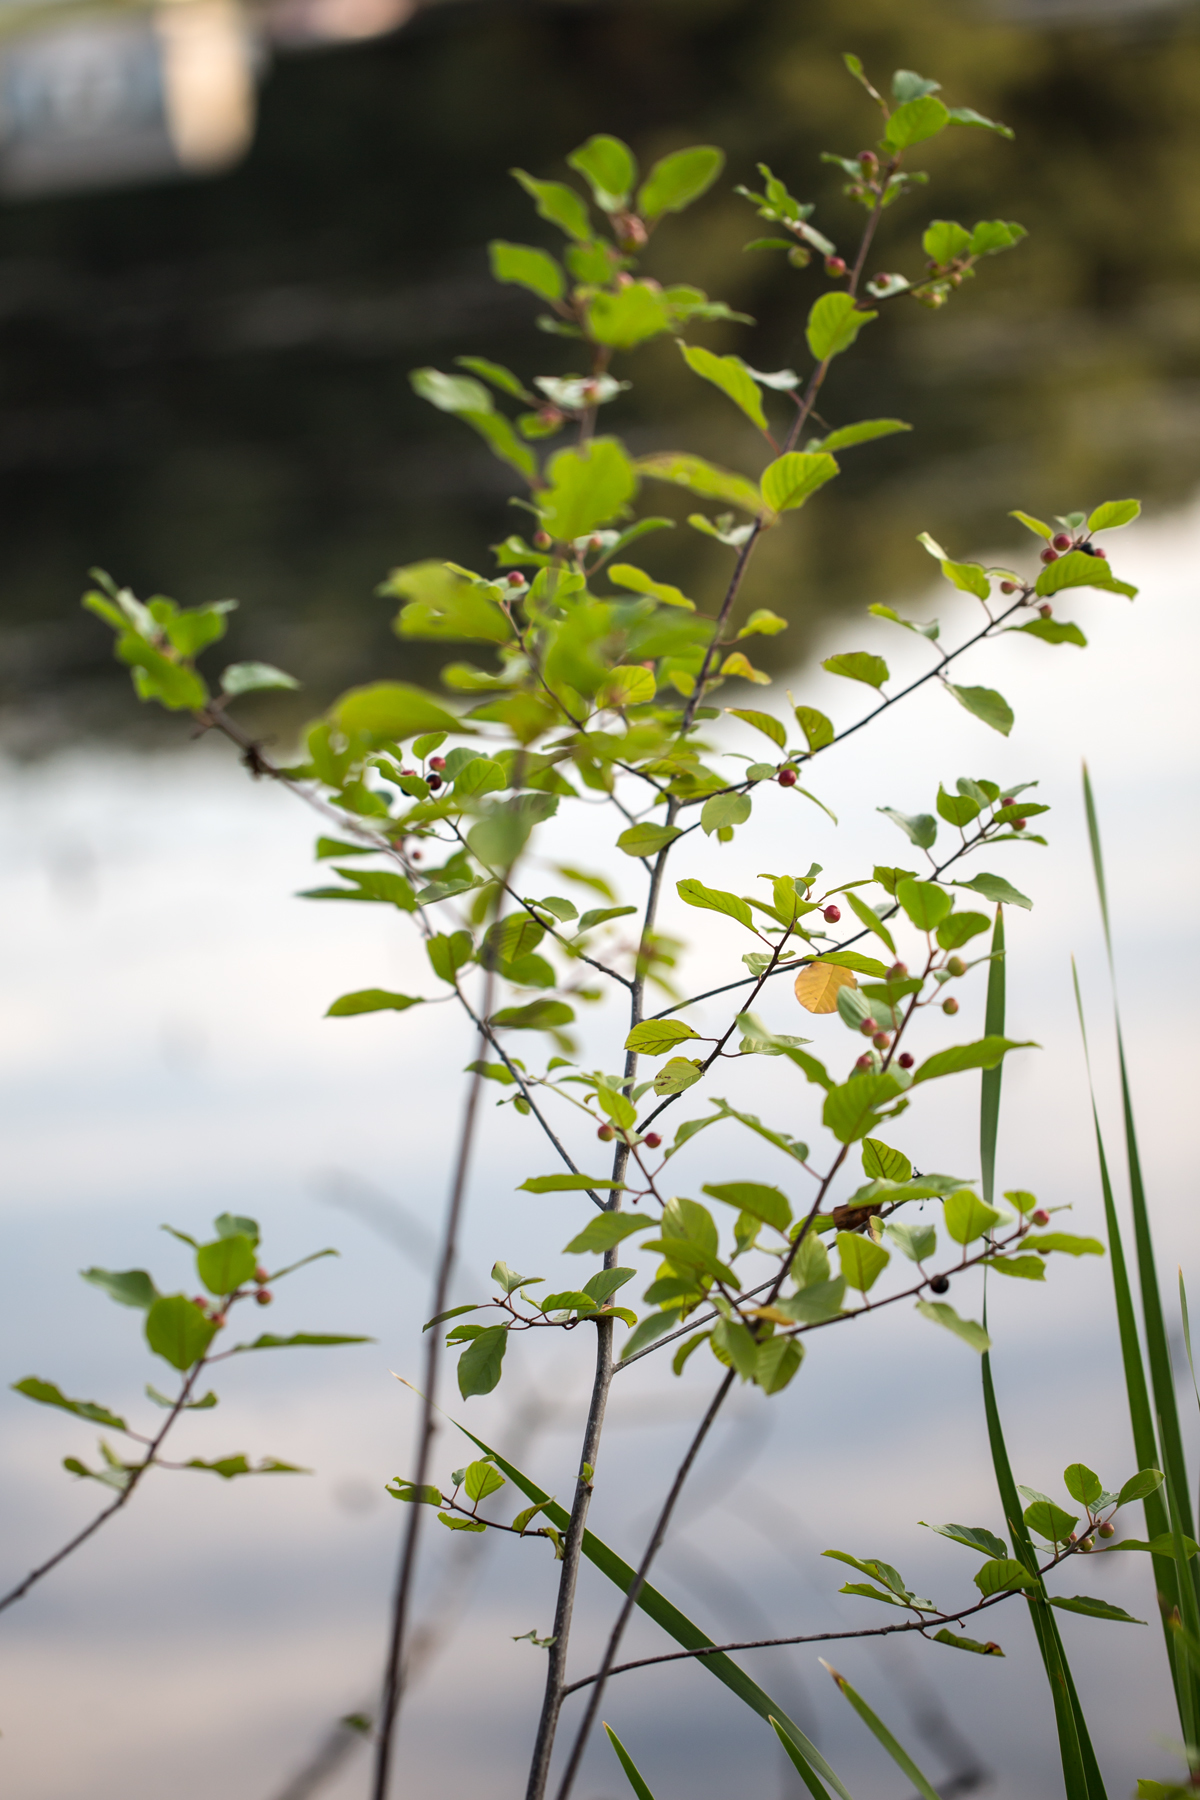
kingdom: Plantae
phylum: Tracheophyta
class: Magnoliopsida
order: Rosales
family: Rhamnaceae
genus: Frangula
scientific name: Frangula alnus
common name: Alder buckthorn
